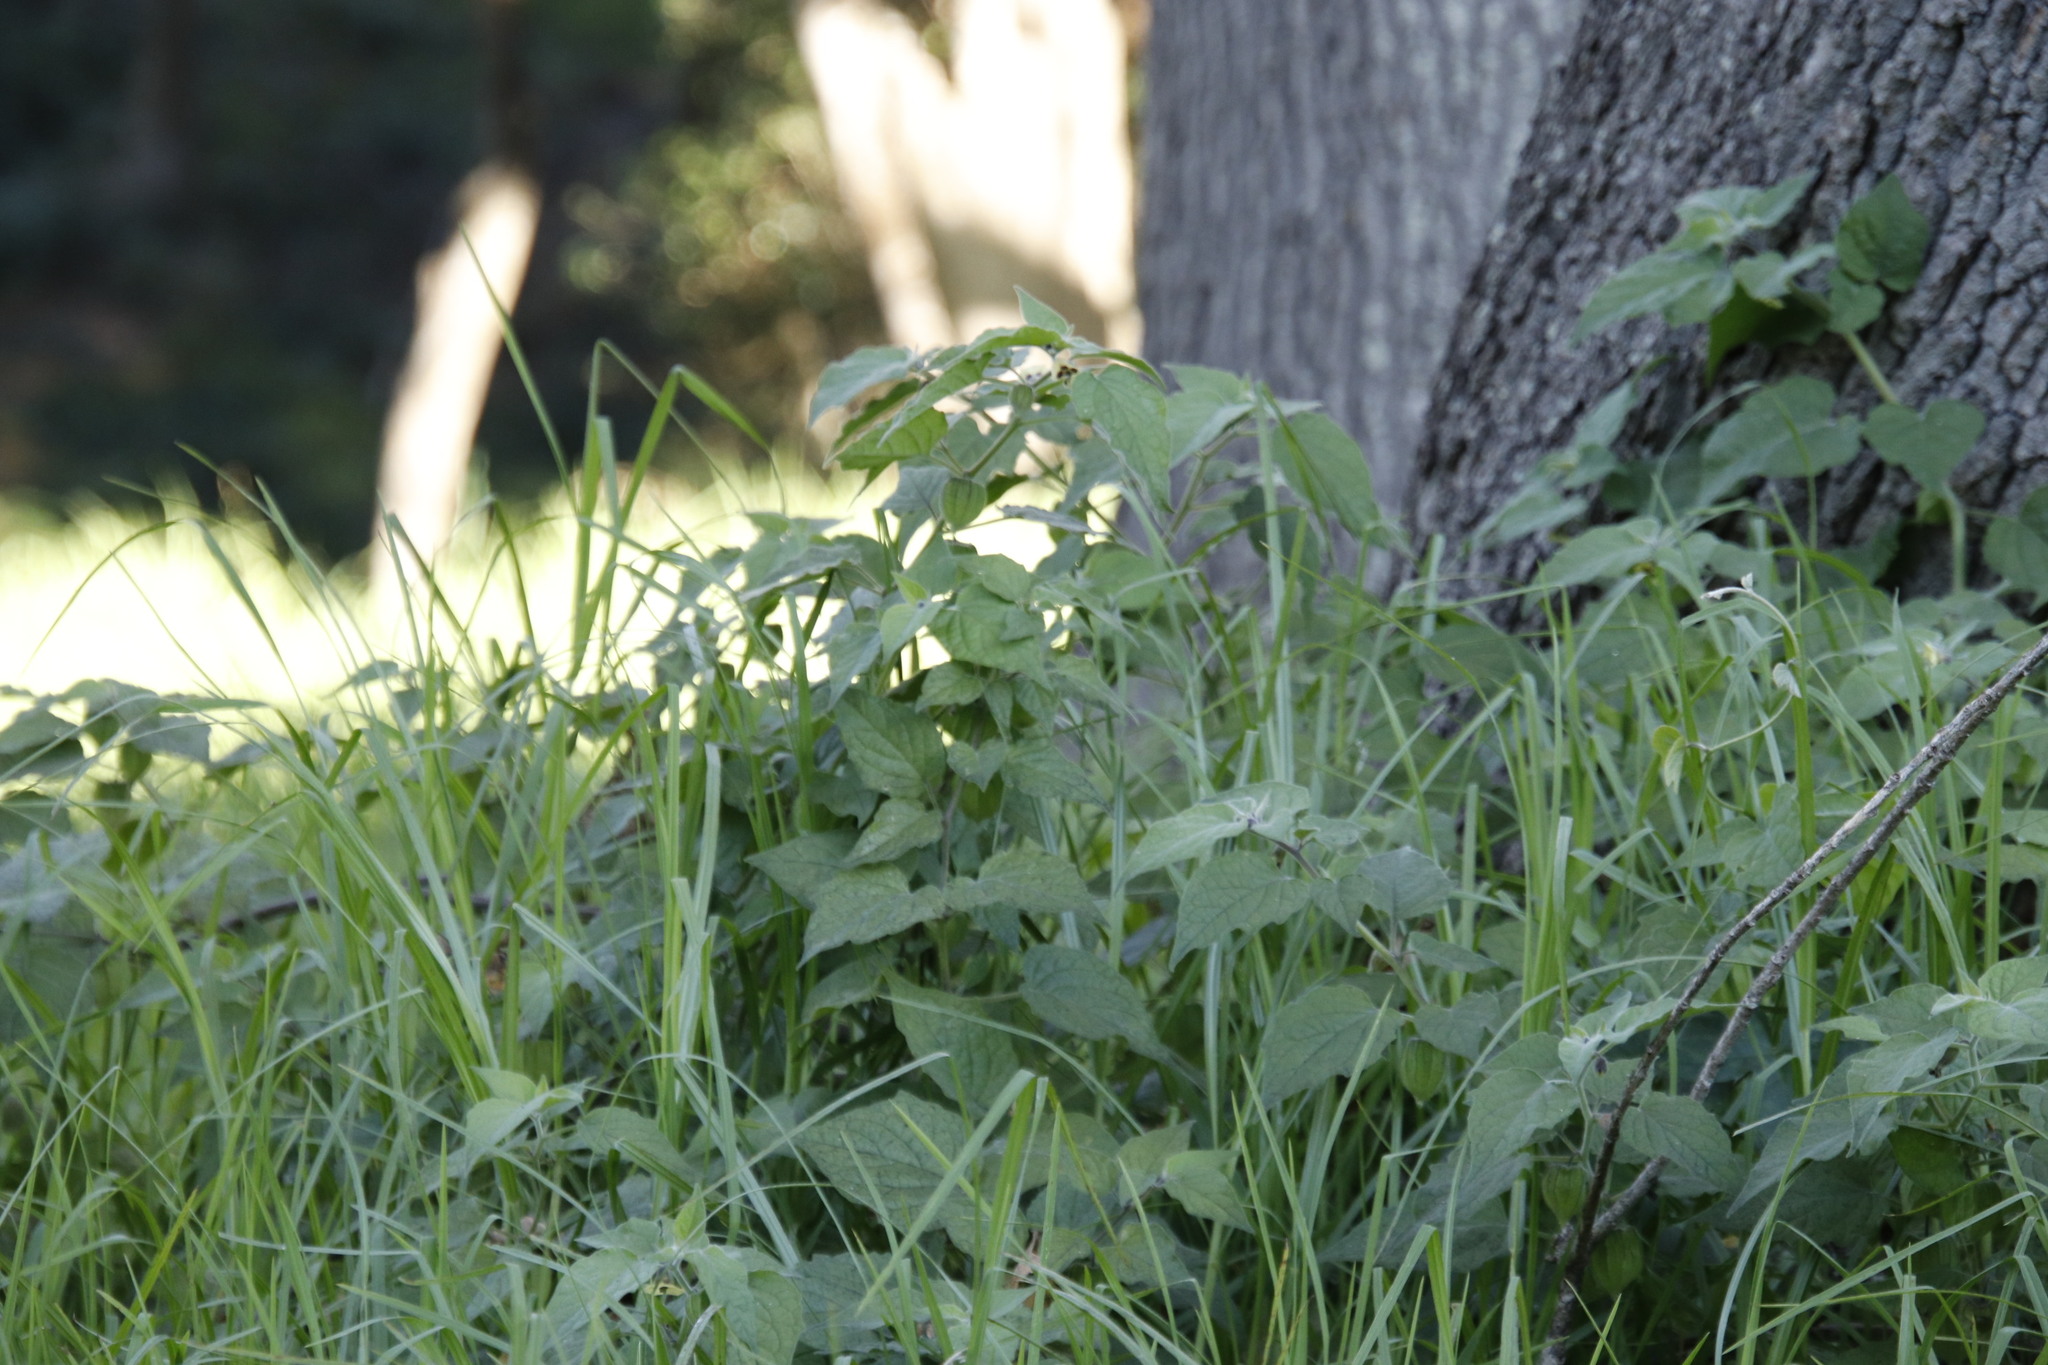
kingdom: Plantae
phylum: Tracheophyta
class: Magnoliopsida
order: Solanales
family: Solanaceae
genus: Physalis
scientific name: Physalis peruviana
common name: Cape-gooseberry
